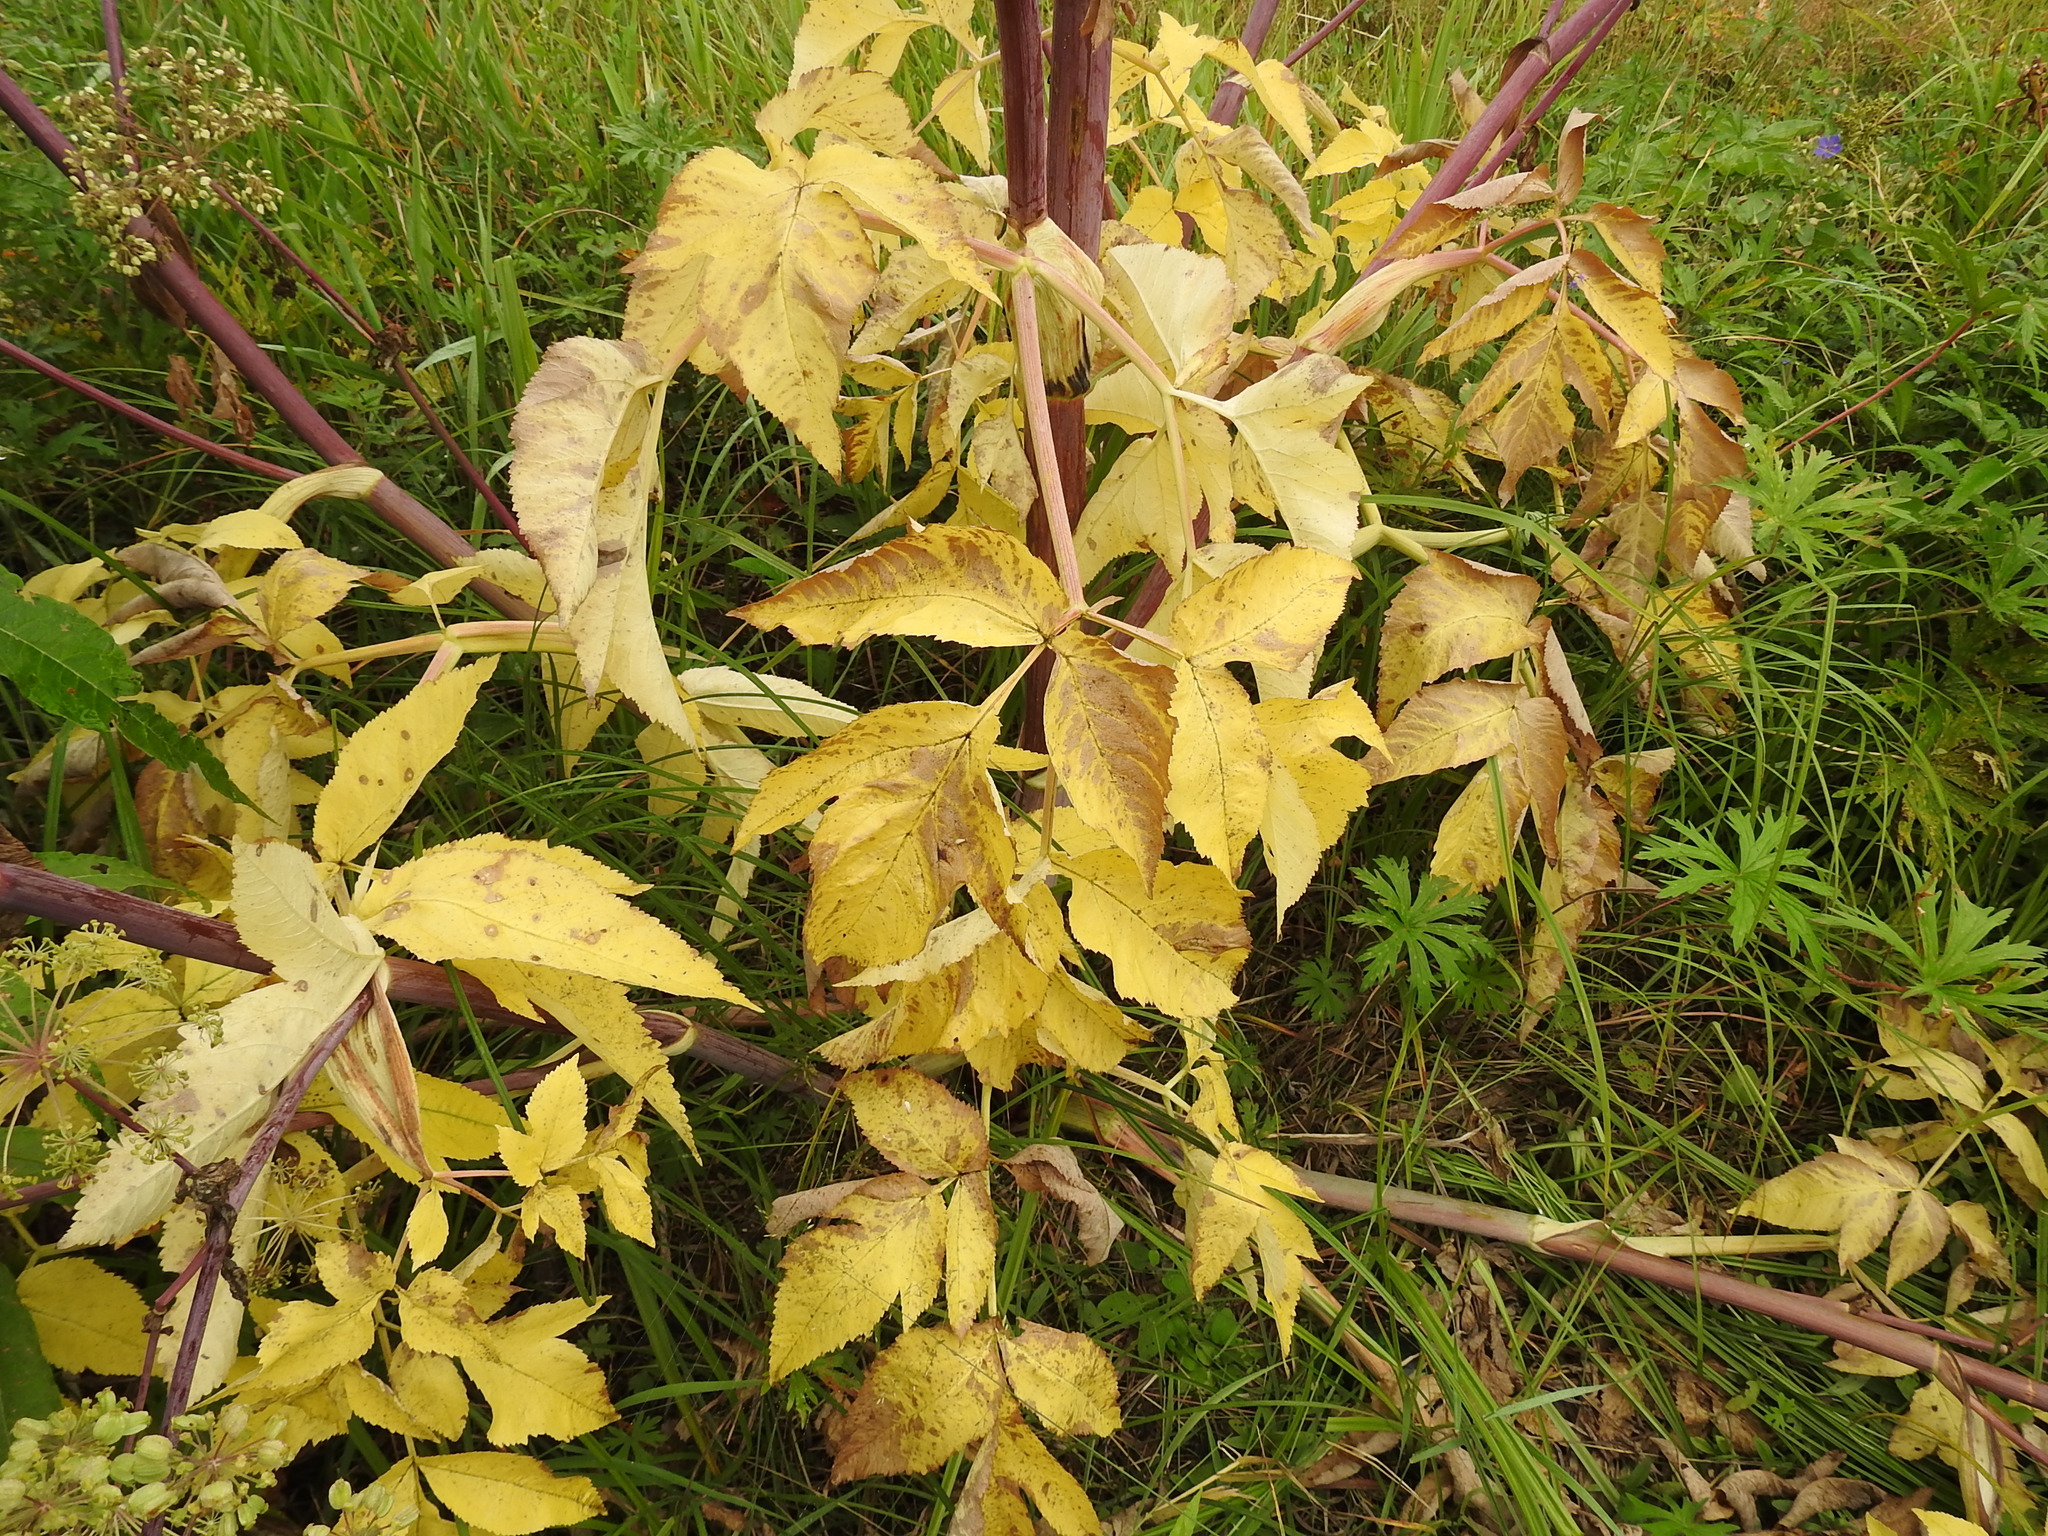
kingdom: Plantae
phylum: Tracheophyta
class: Magnoliopsida
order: Apiales
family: Apiaceae
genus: Angelica
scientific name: Angelica decurrens
